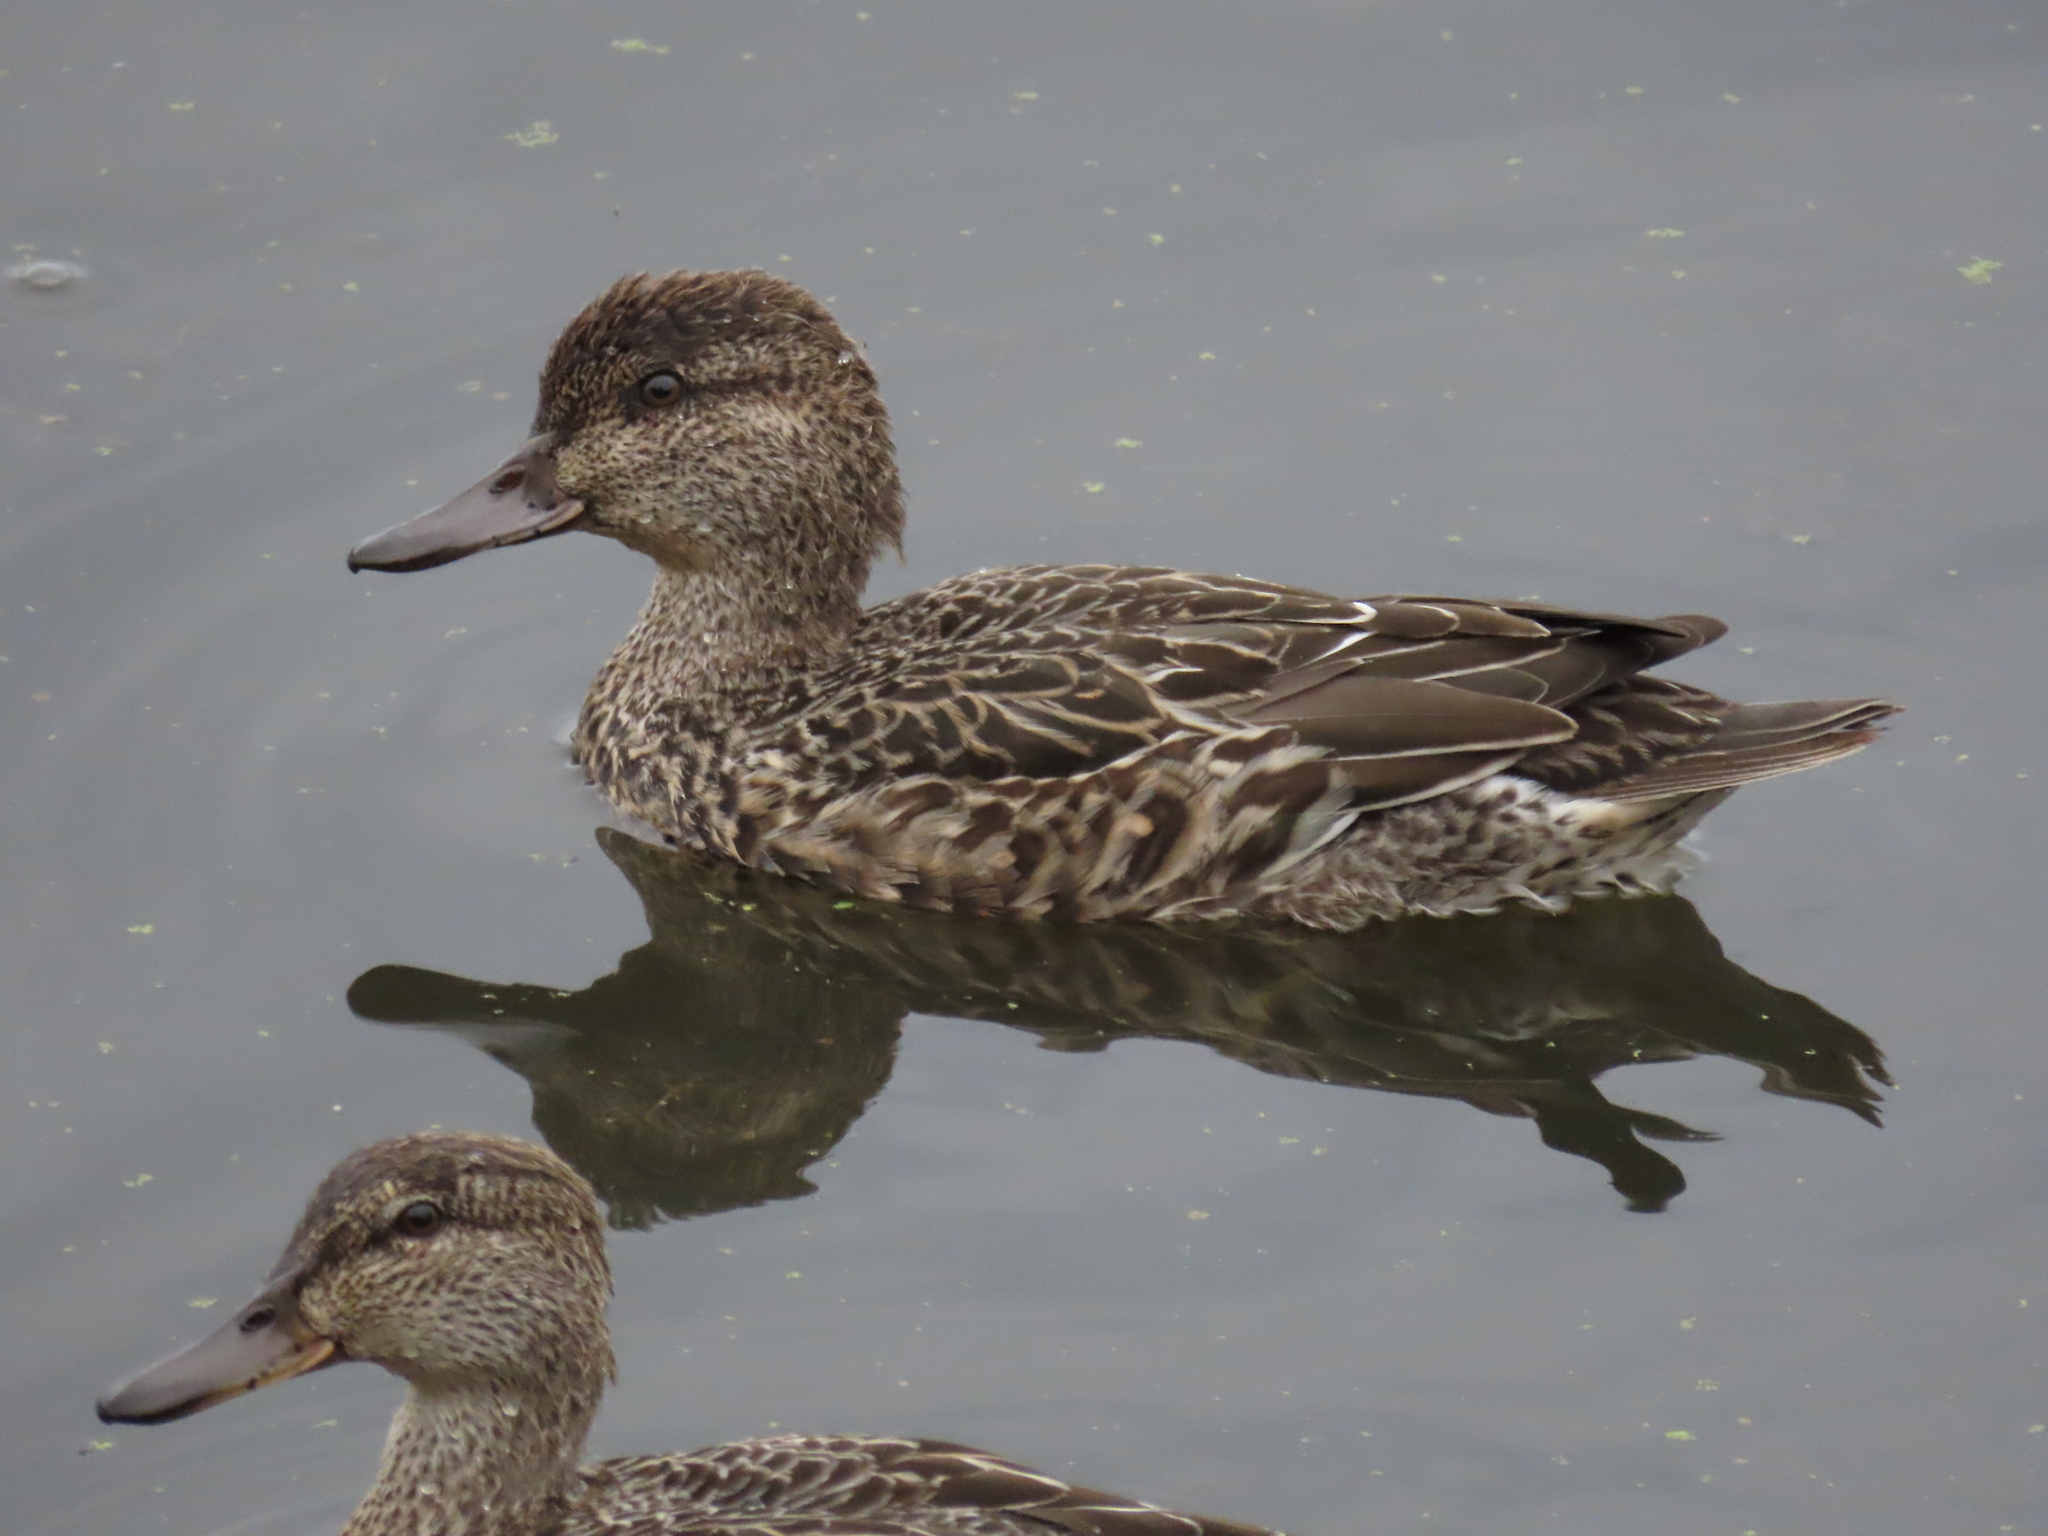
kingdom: Animalia
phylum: Chordata
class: Aves
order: Anseriformes
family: Anatidae
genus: Anas
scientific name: Anas crecca
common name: Eurasian teal
